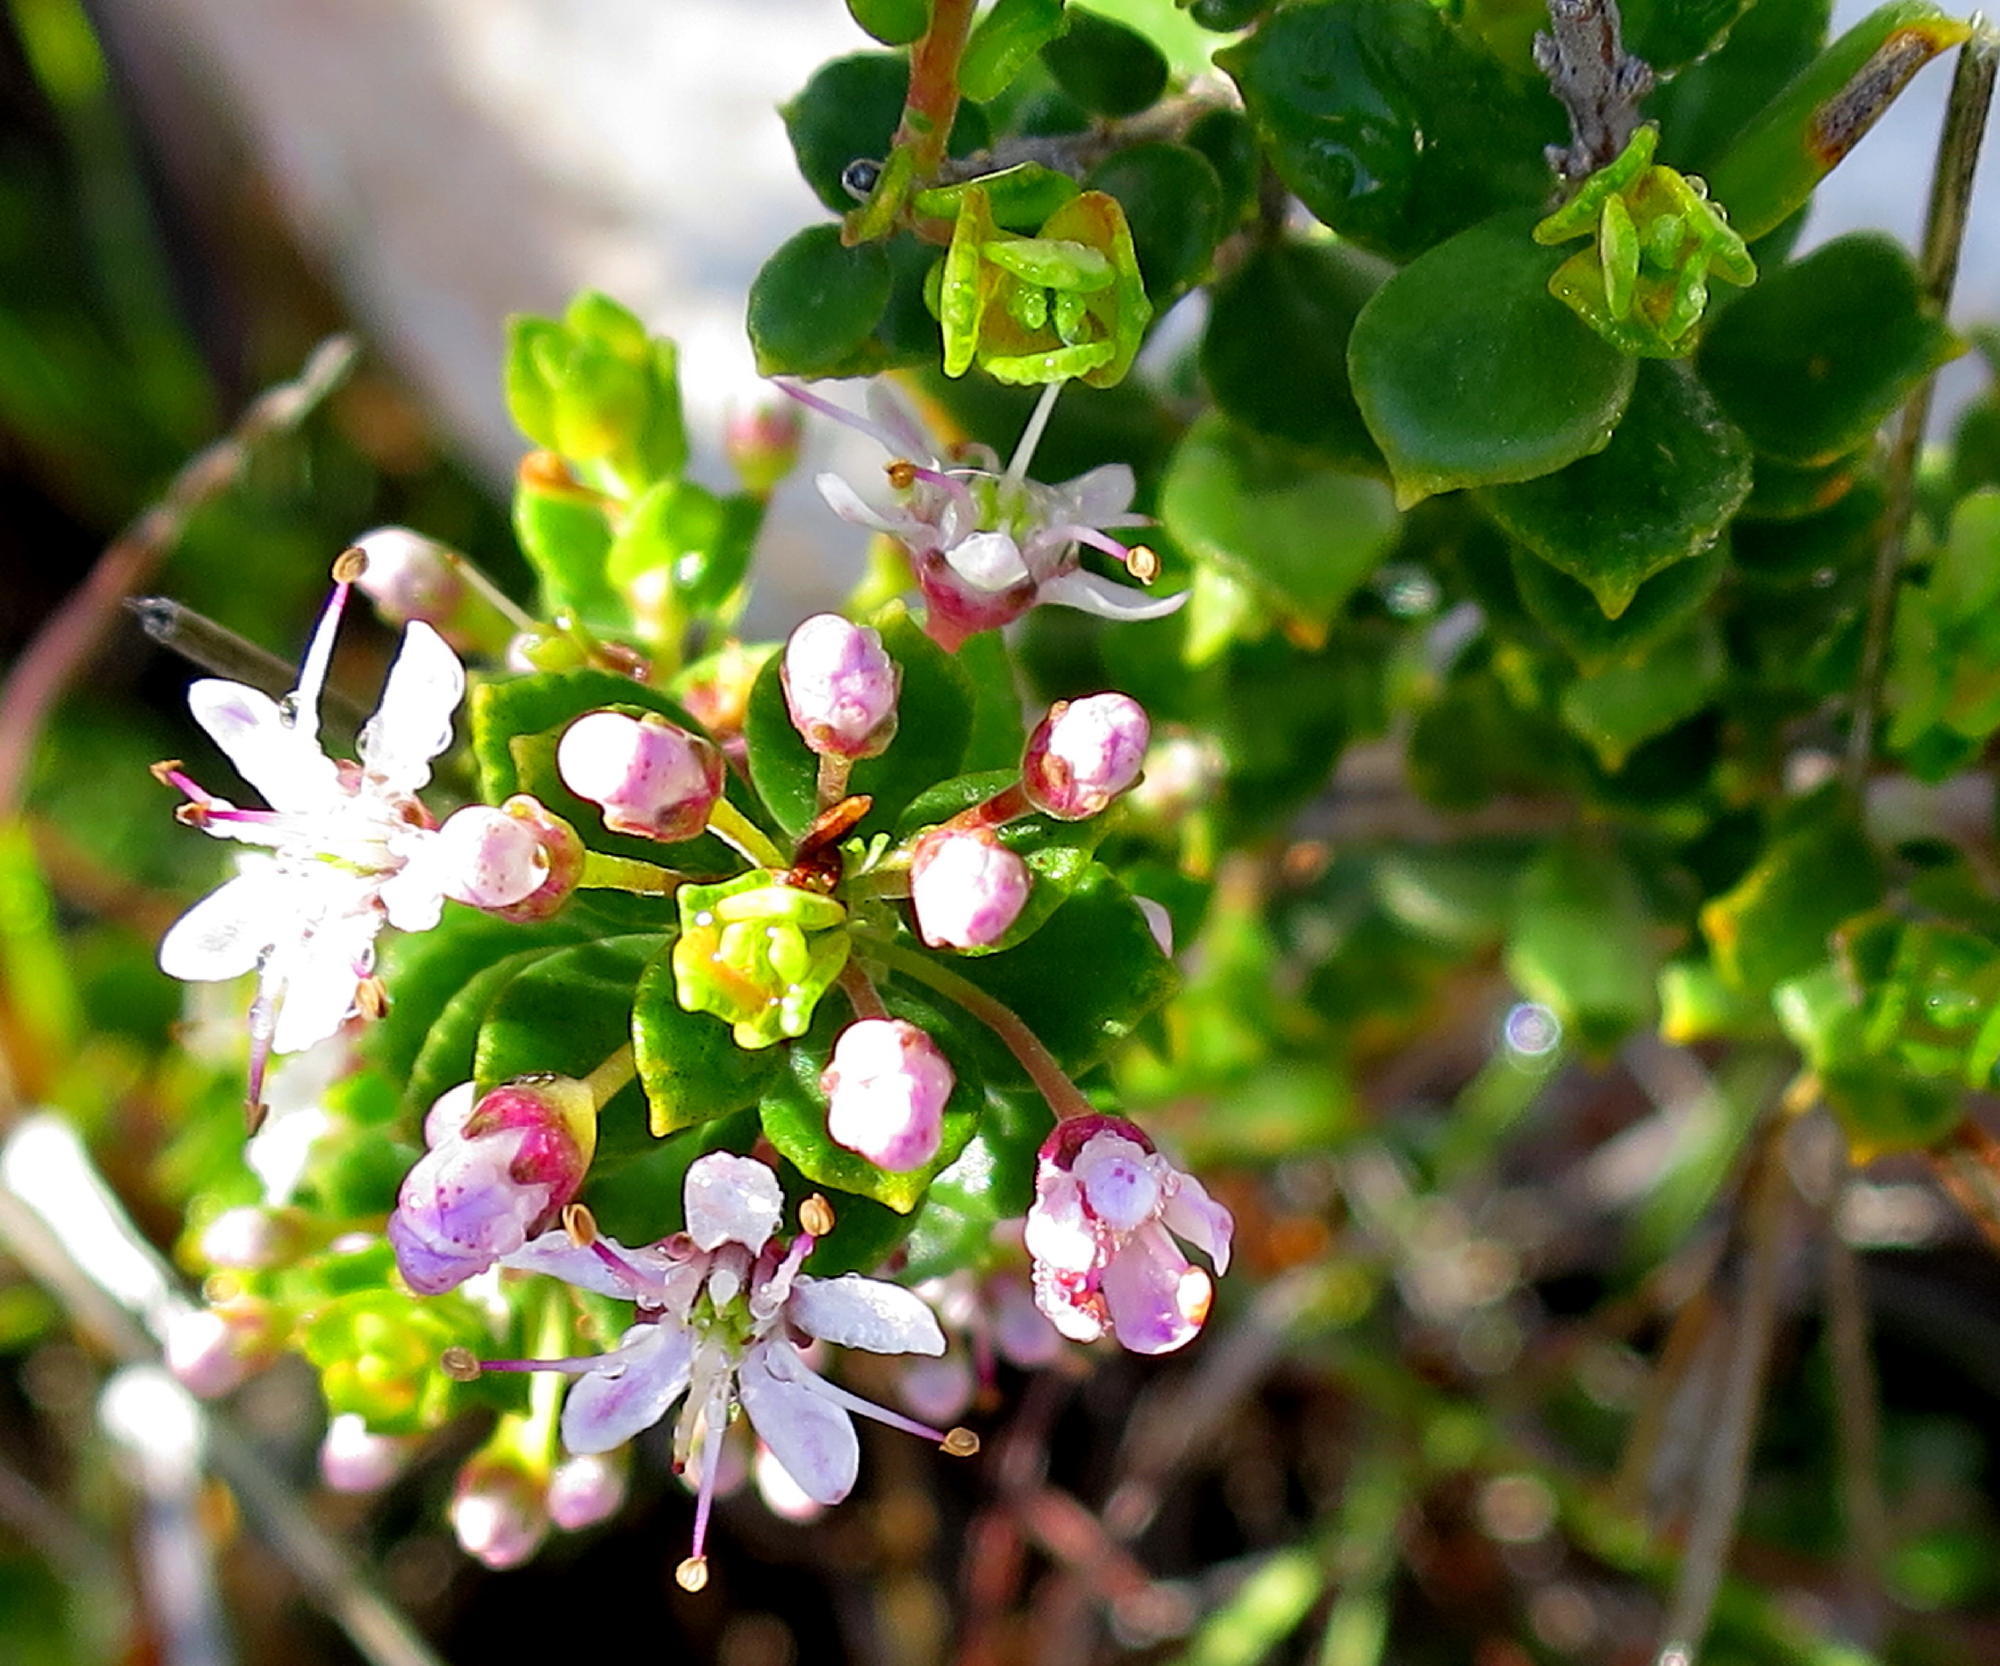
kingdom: Plantae
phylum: Tracheophyta
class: Magnoliopsida
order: Sapindales
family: Rutaceae
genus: Agathosma
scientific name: Agathosma ovata
